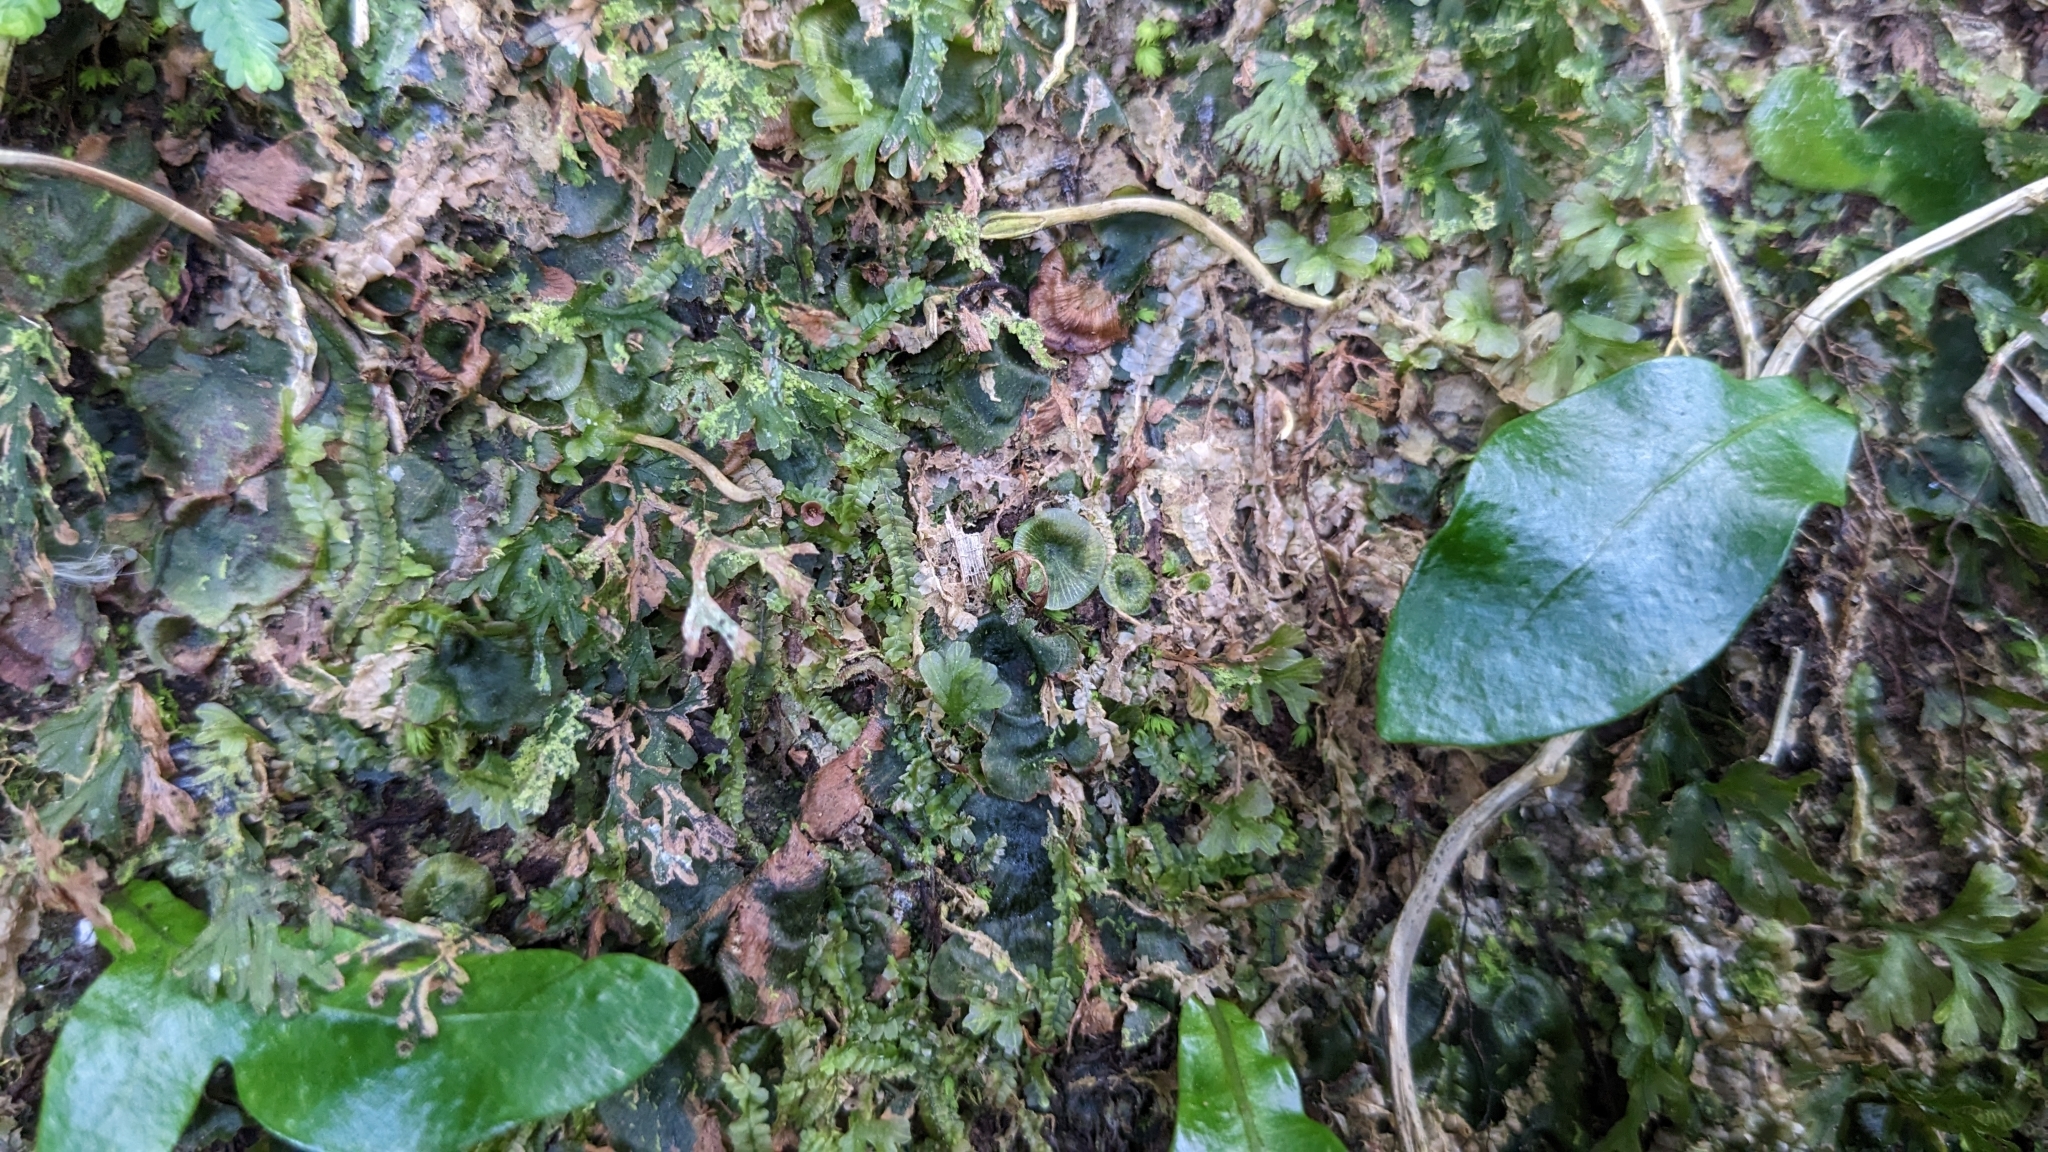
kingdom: Plantae
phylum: Tracheophyta
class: Polypodiopsida
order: Hymenophyllales
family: Hymenophyllaceae
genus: Didymoglossum
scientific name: Didymoglossum tahitense
